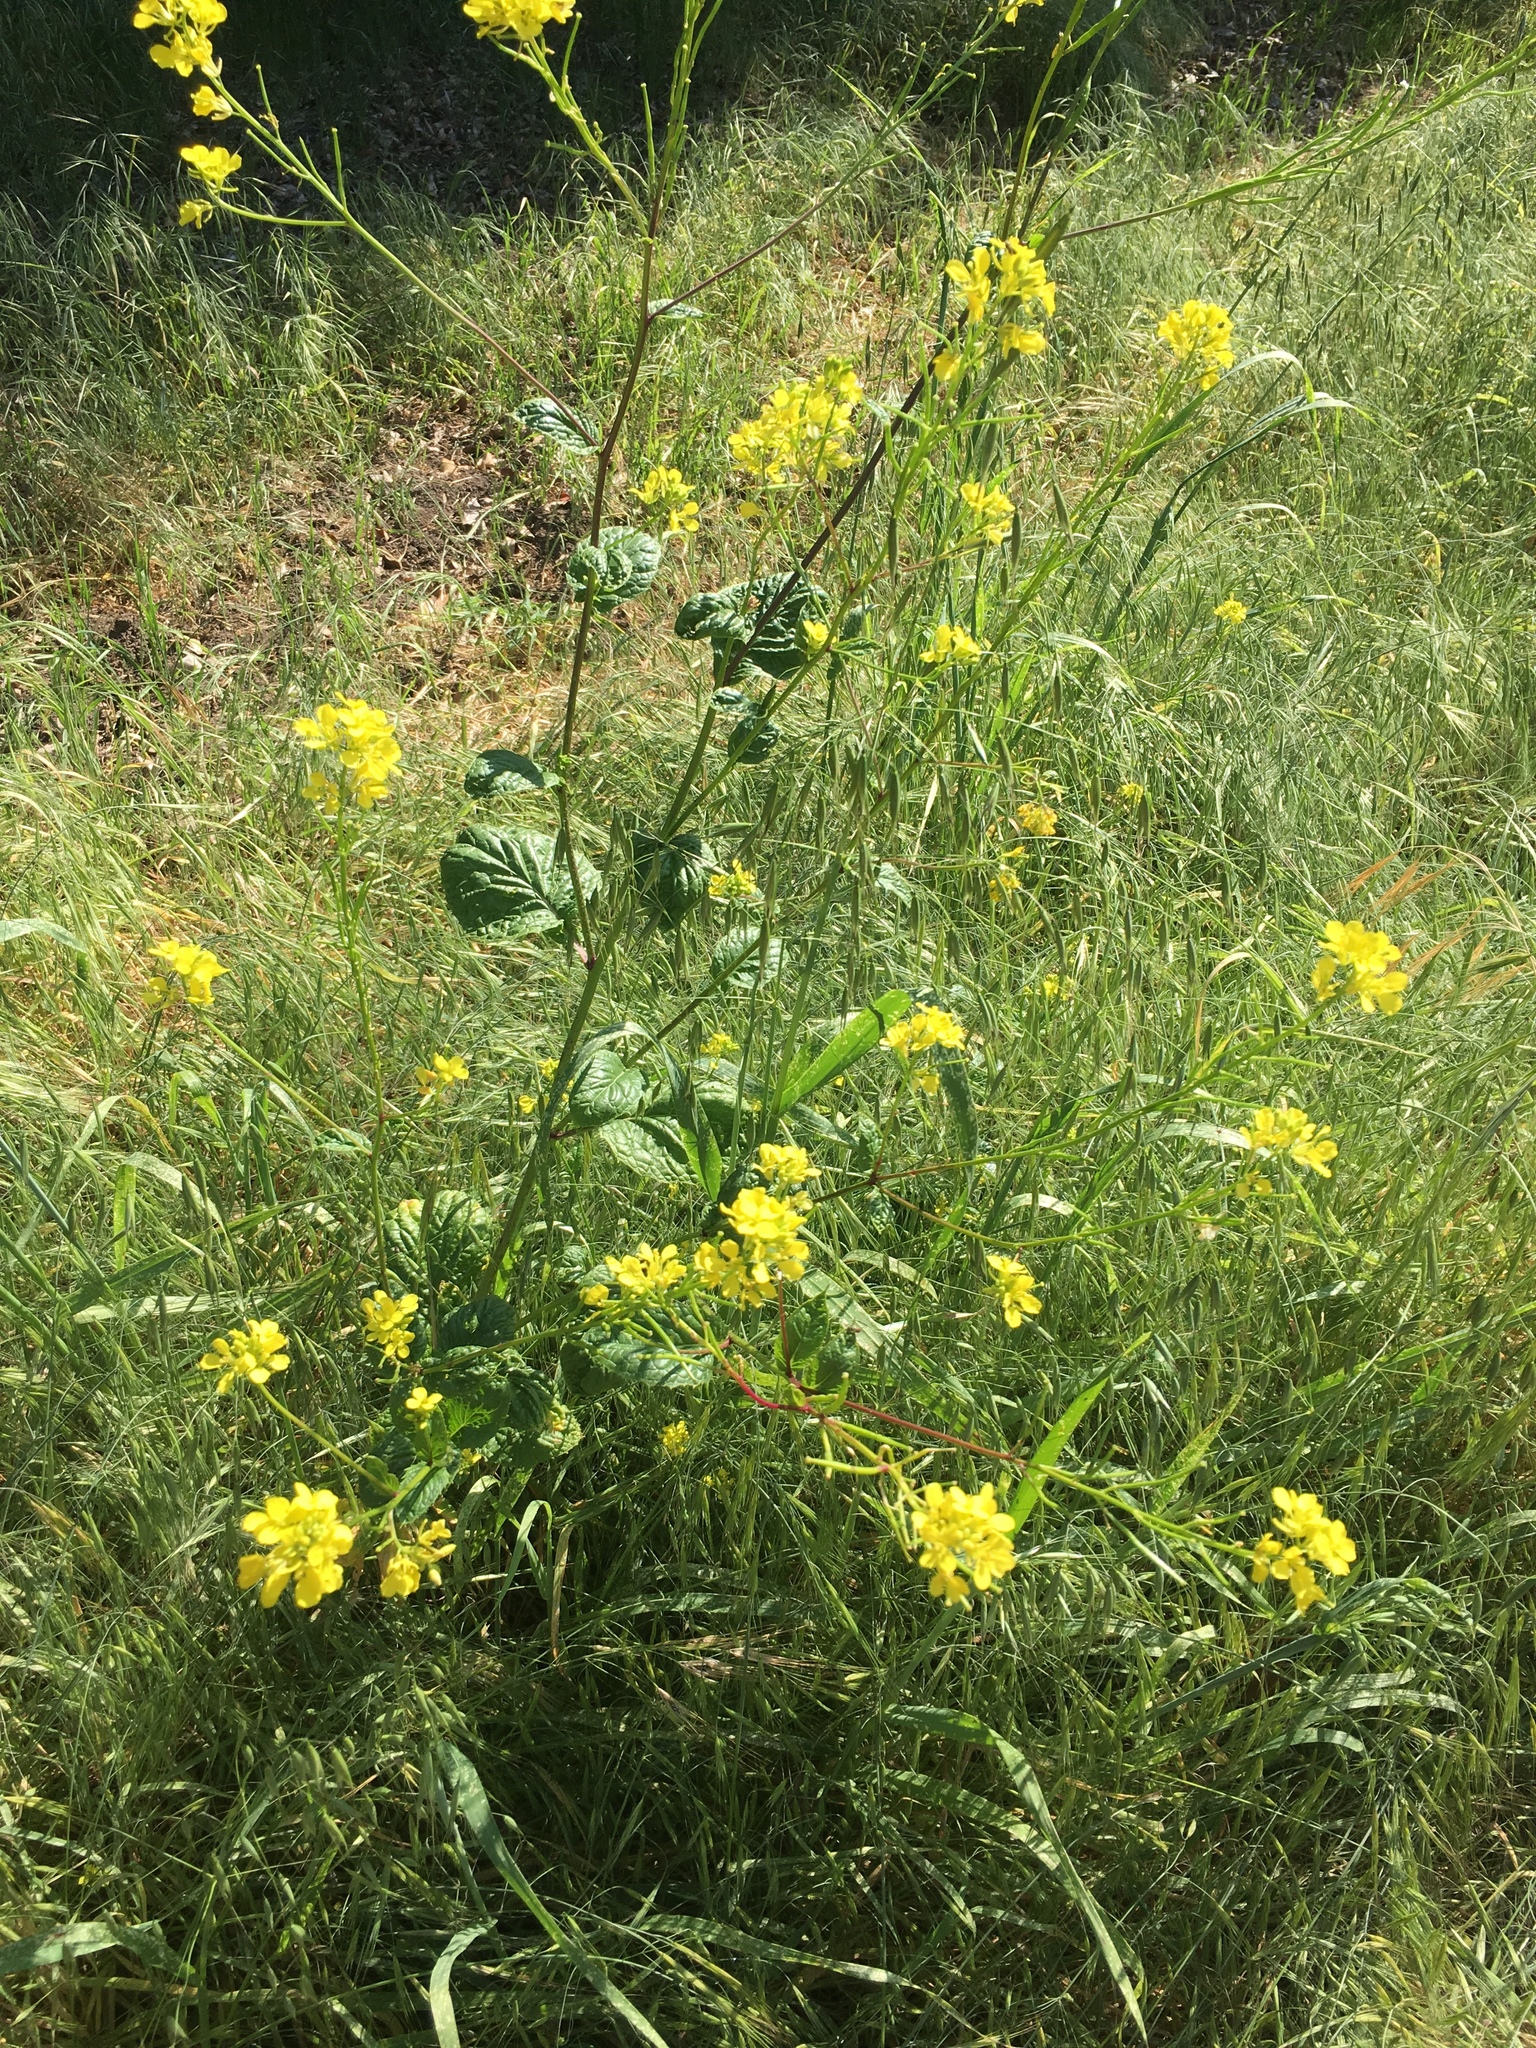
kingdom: Plantae
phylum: Tracheophyta
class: Magnoliopsida
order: Brassicales
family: Brassicaceae
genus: Brassica
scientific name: Brassica nigra
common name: Black mustard
